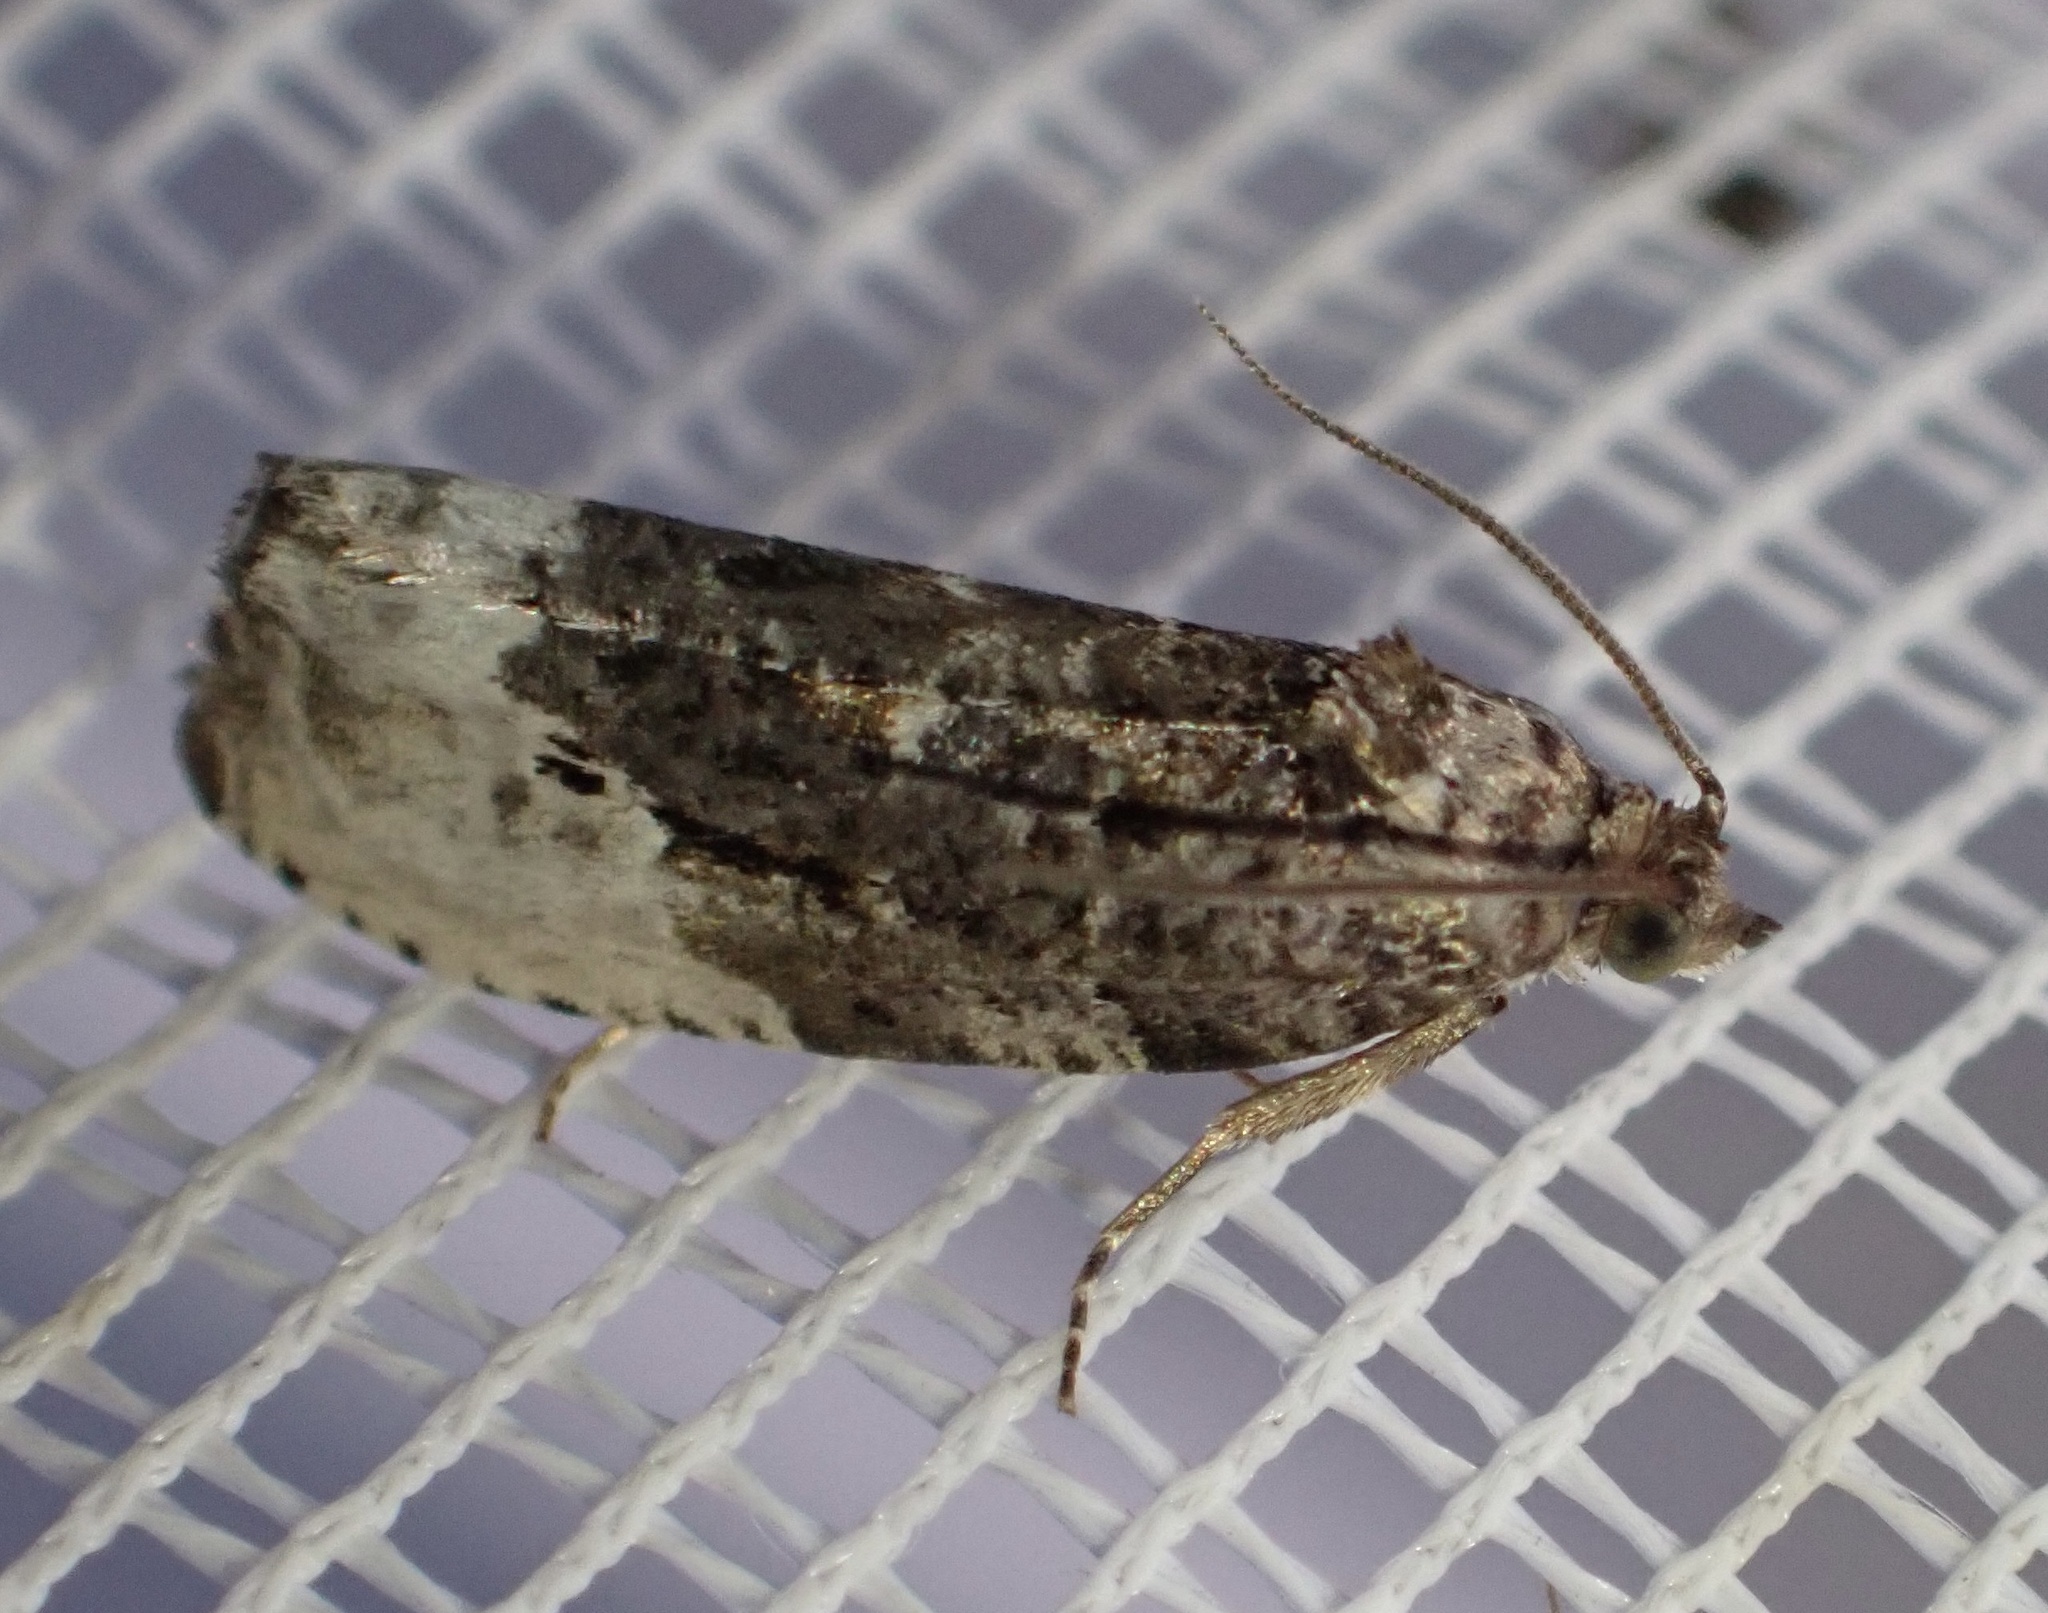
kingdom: Animalia
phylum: Arthropoda
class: Insecta
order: Lepidoptera
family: Tortricidae
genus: Hedya
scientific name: Hedya nubiferana
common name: Marbled orchard tortrix
